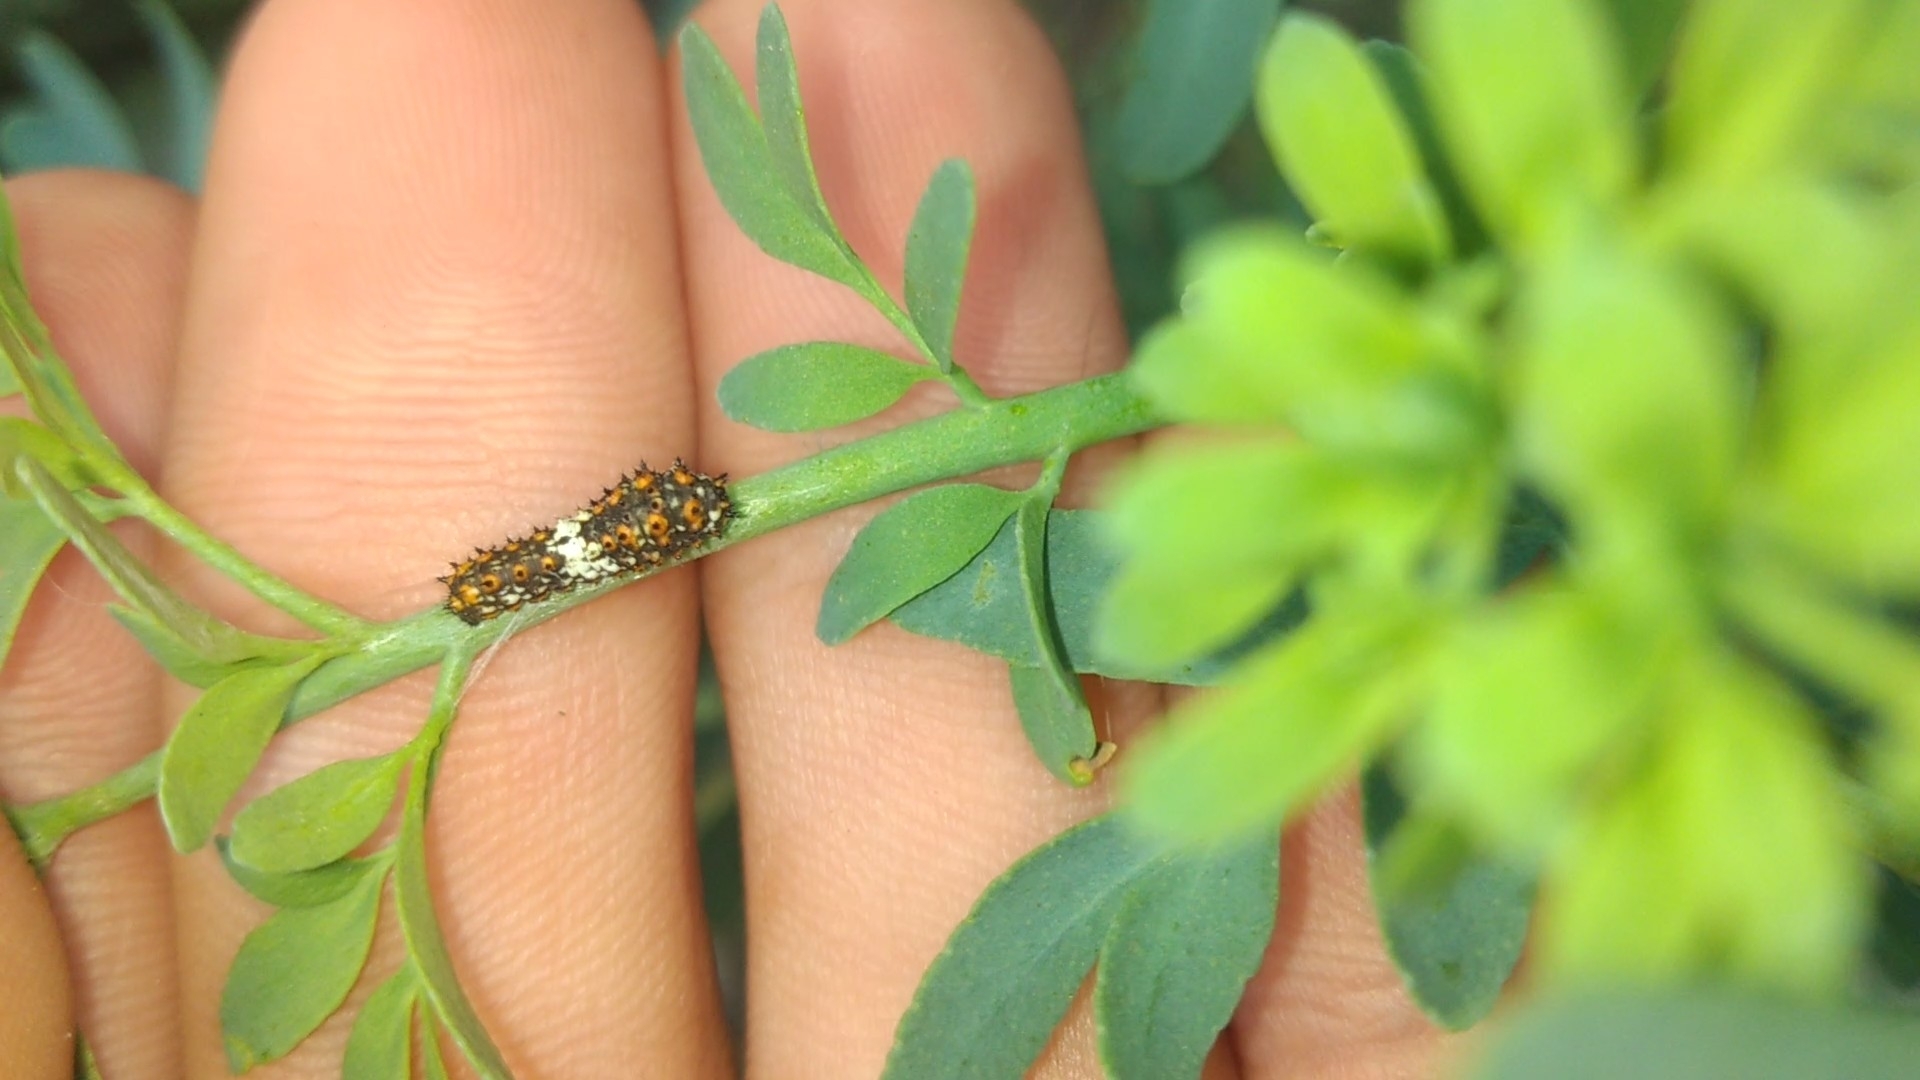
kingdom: Animalia
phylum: Arthropoda
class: Insecta
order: Lepidoptera
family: Papilionidae
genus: Papilio
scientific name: Papilio polyxenes
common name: Black swallowtail
